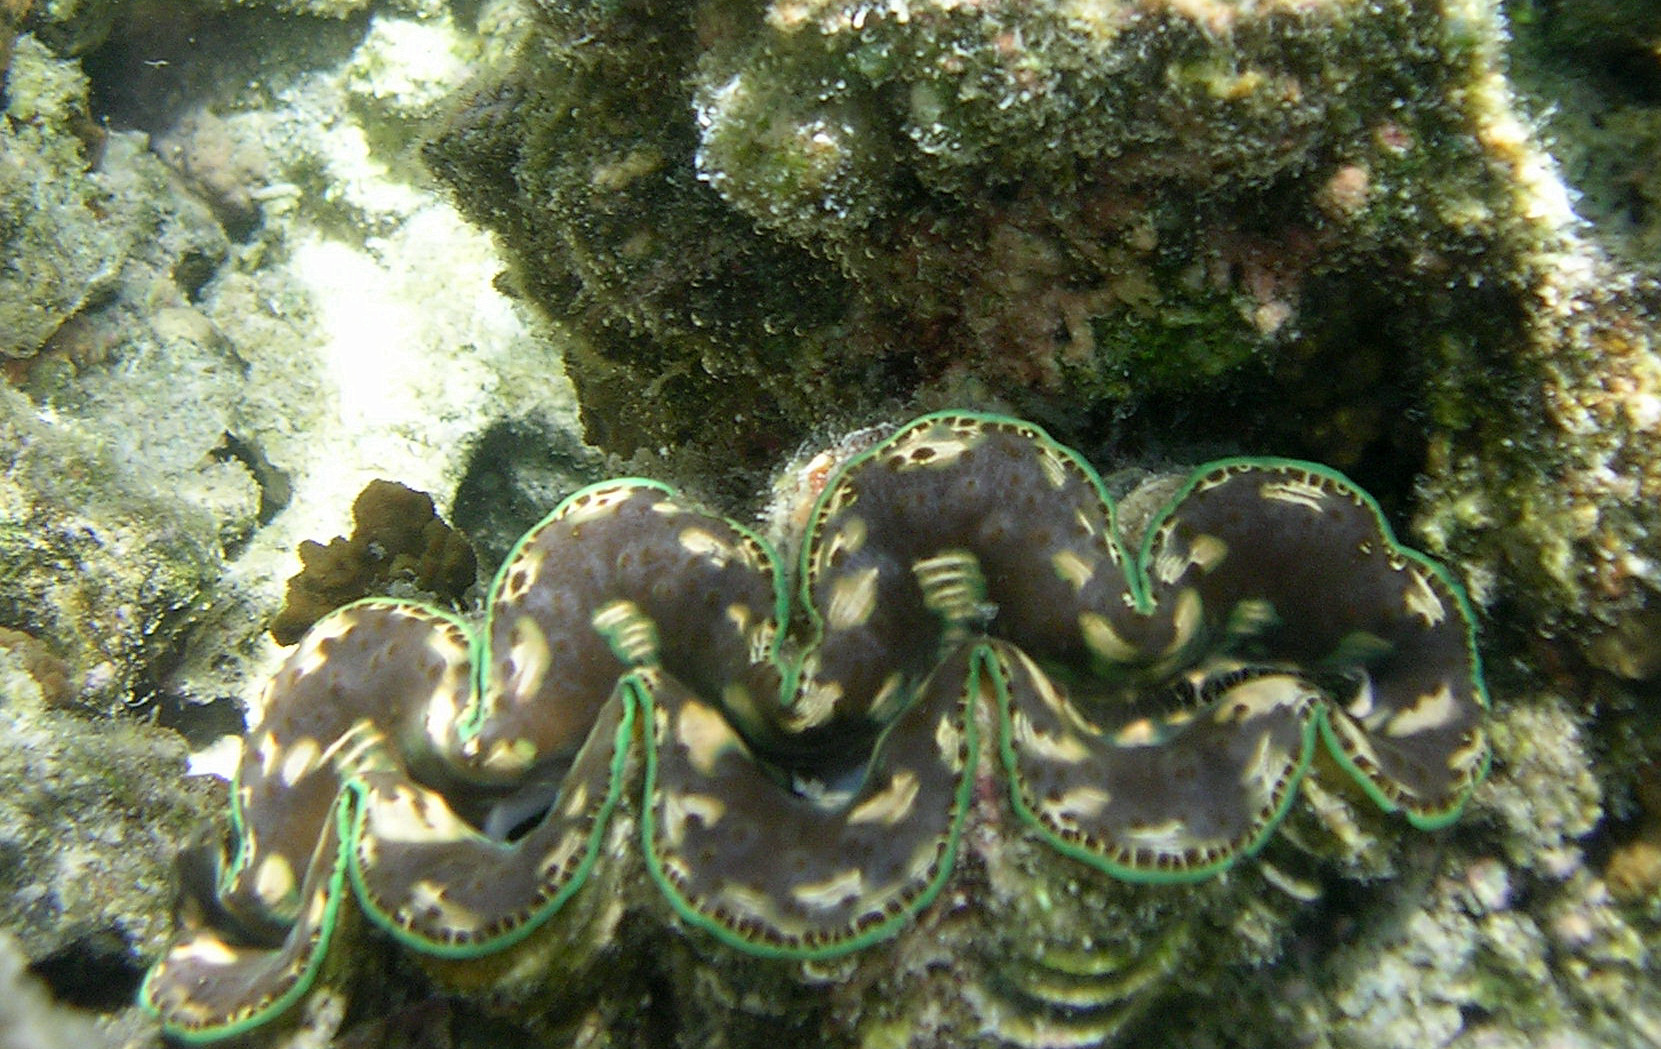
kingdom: Animalia
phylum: Mollusca
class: Bivalvia
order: Cardiida
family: Cardiidae
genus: Tridacna
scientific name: Tridacna maxima
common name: Small giant clam
